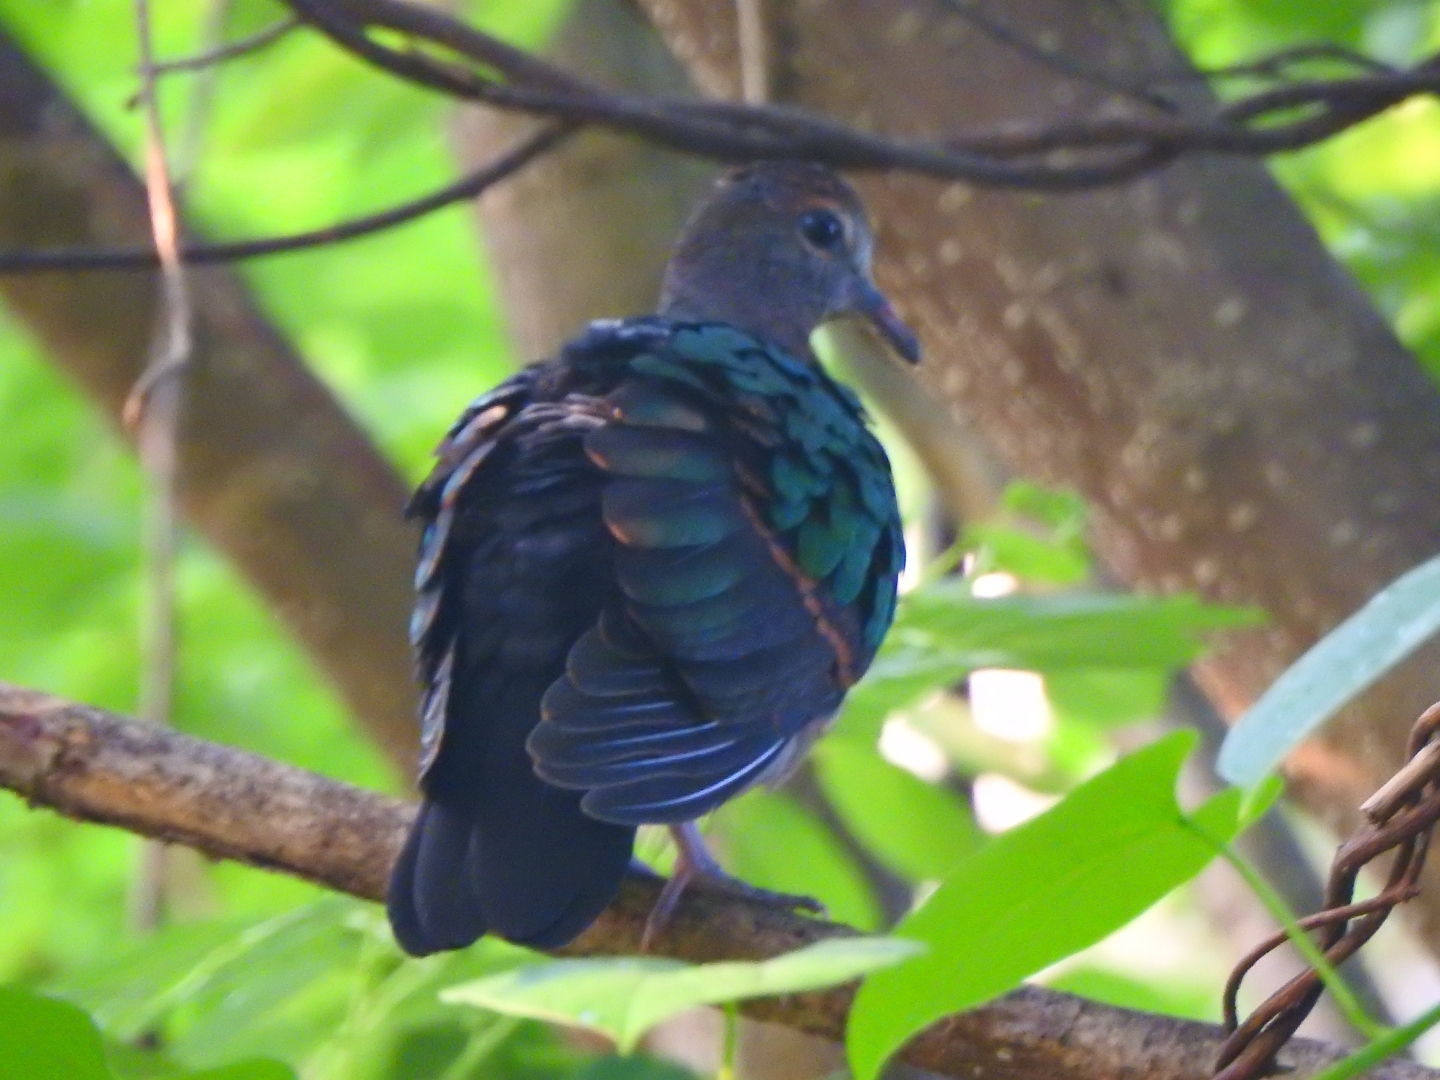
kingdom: Animalia
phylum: Chordata
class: Aves
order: Columbiformes
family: Columbidae
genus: Chalcophaps
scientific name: Chalcophaps indica
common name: Common emerald dove
